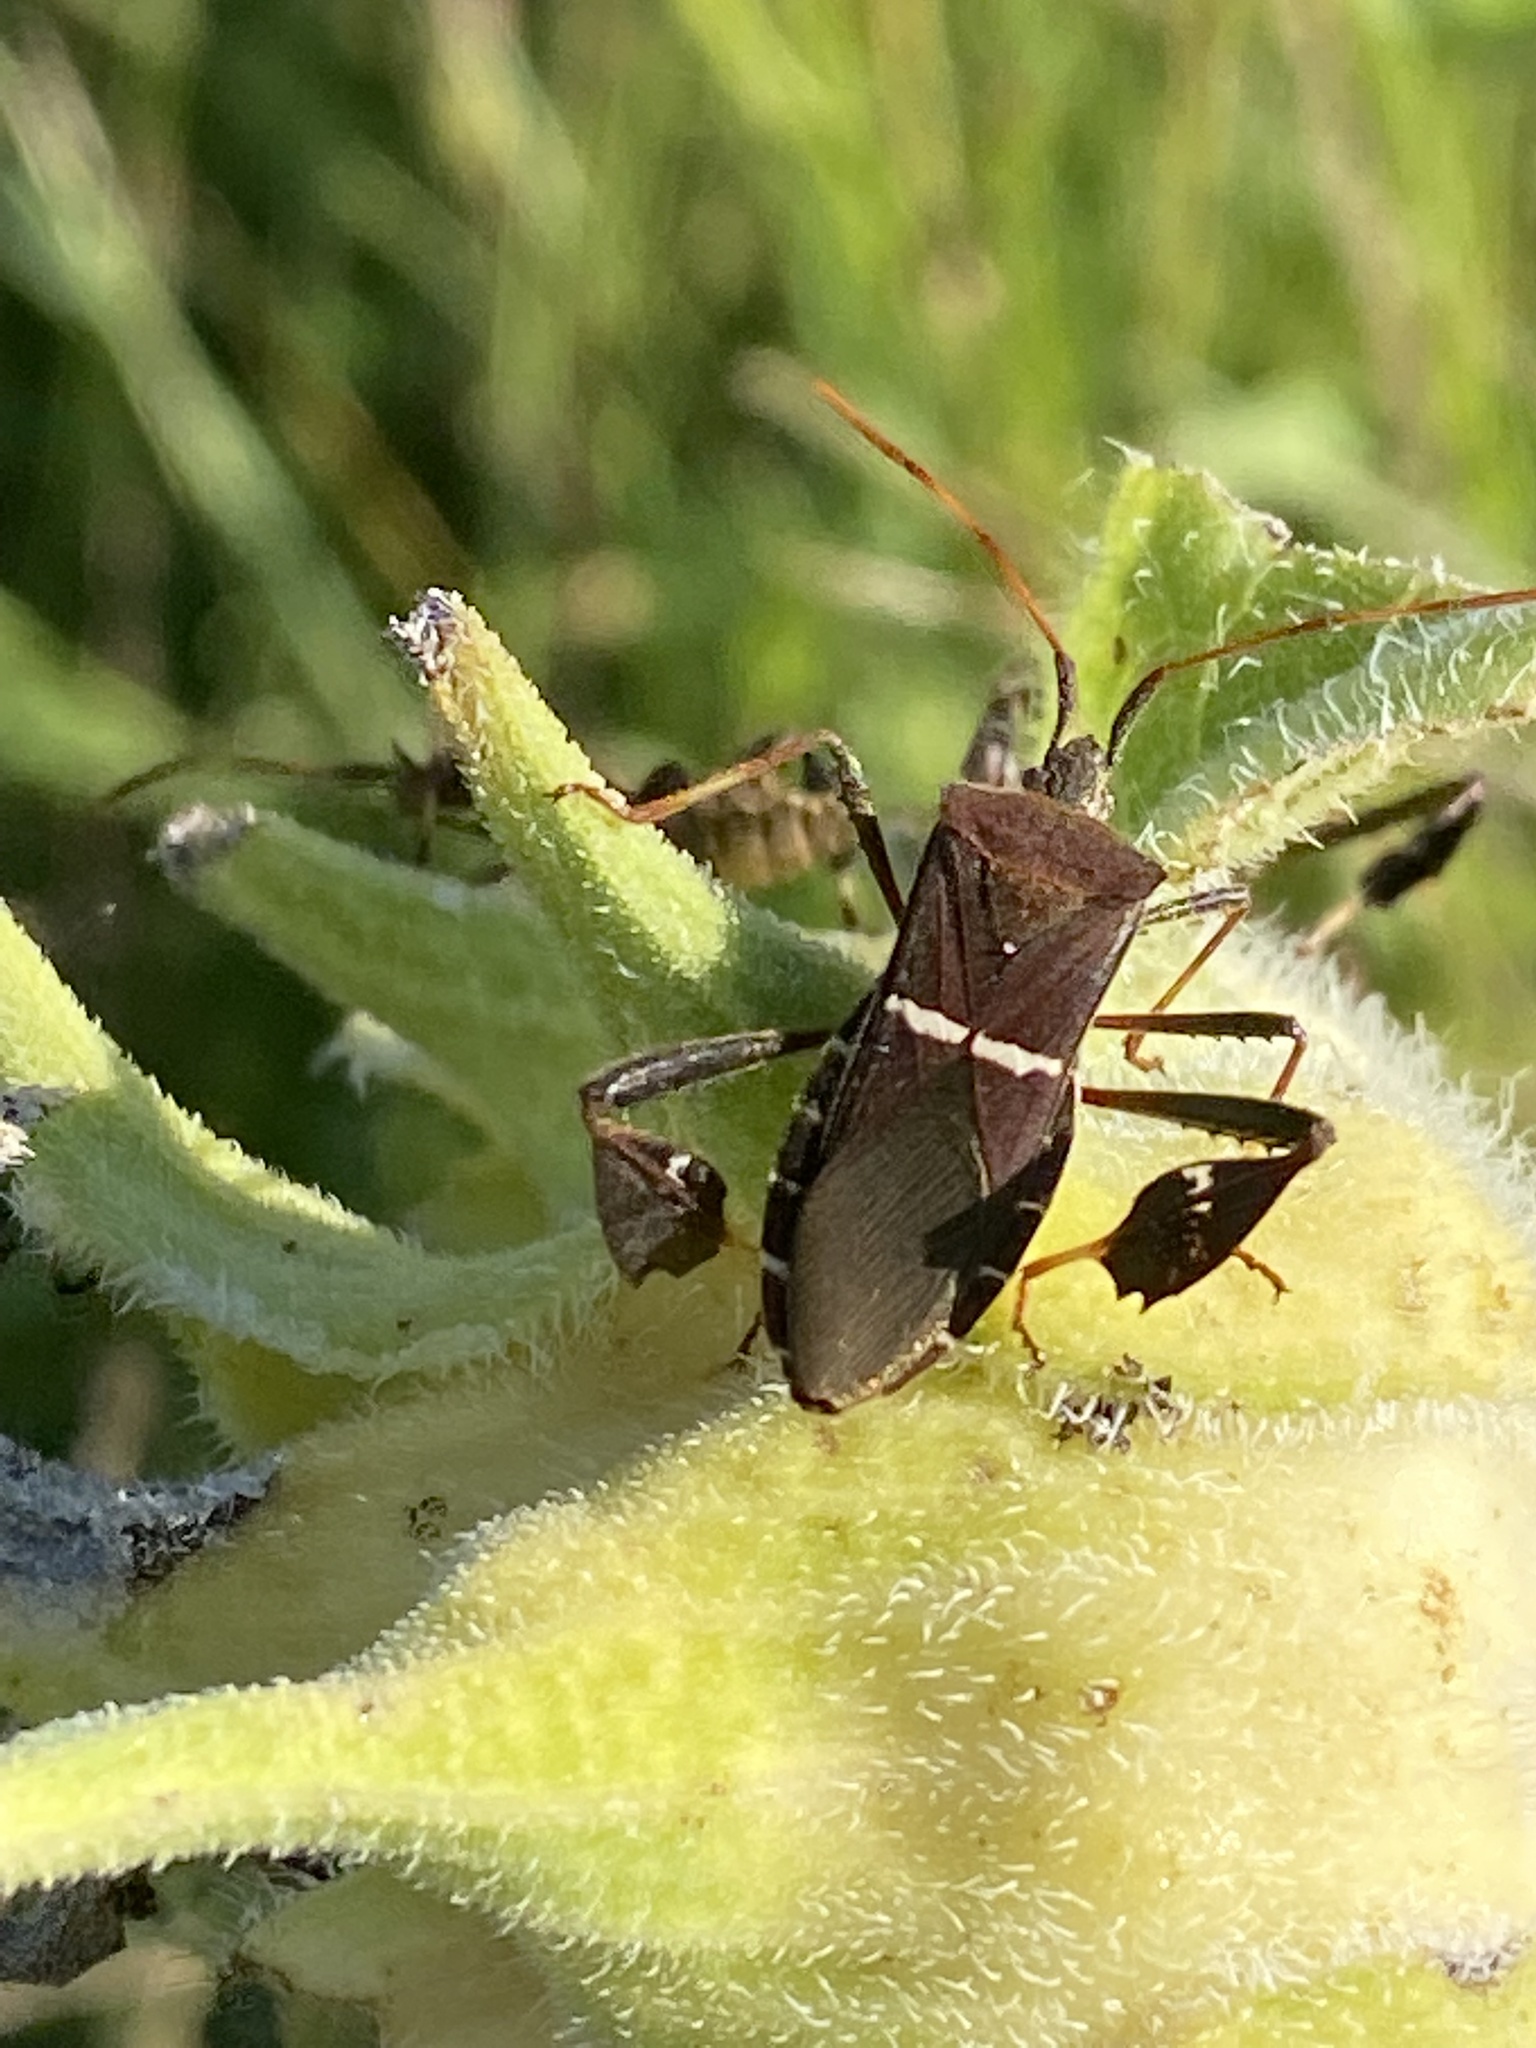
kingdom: Animalia
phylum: Arthropoda
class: Insecta
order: Hemiptera
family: Coreidae
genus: Leptoglossus
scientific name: Leptoglossus phyllopus
